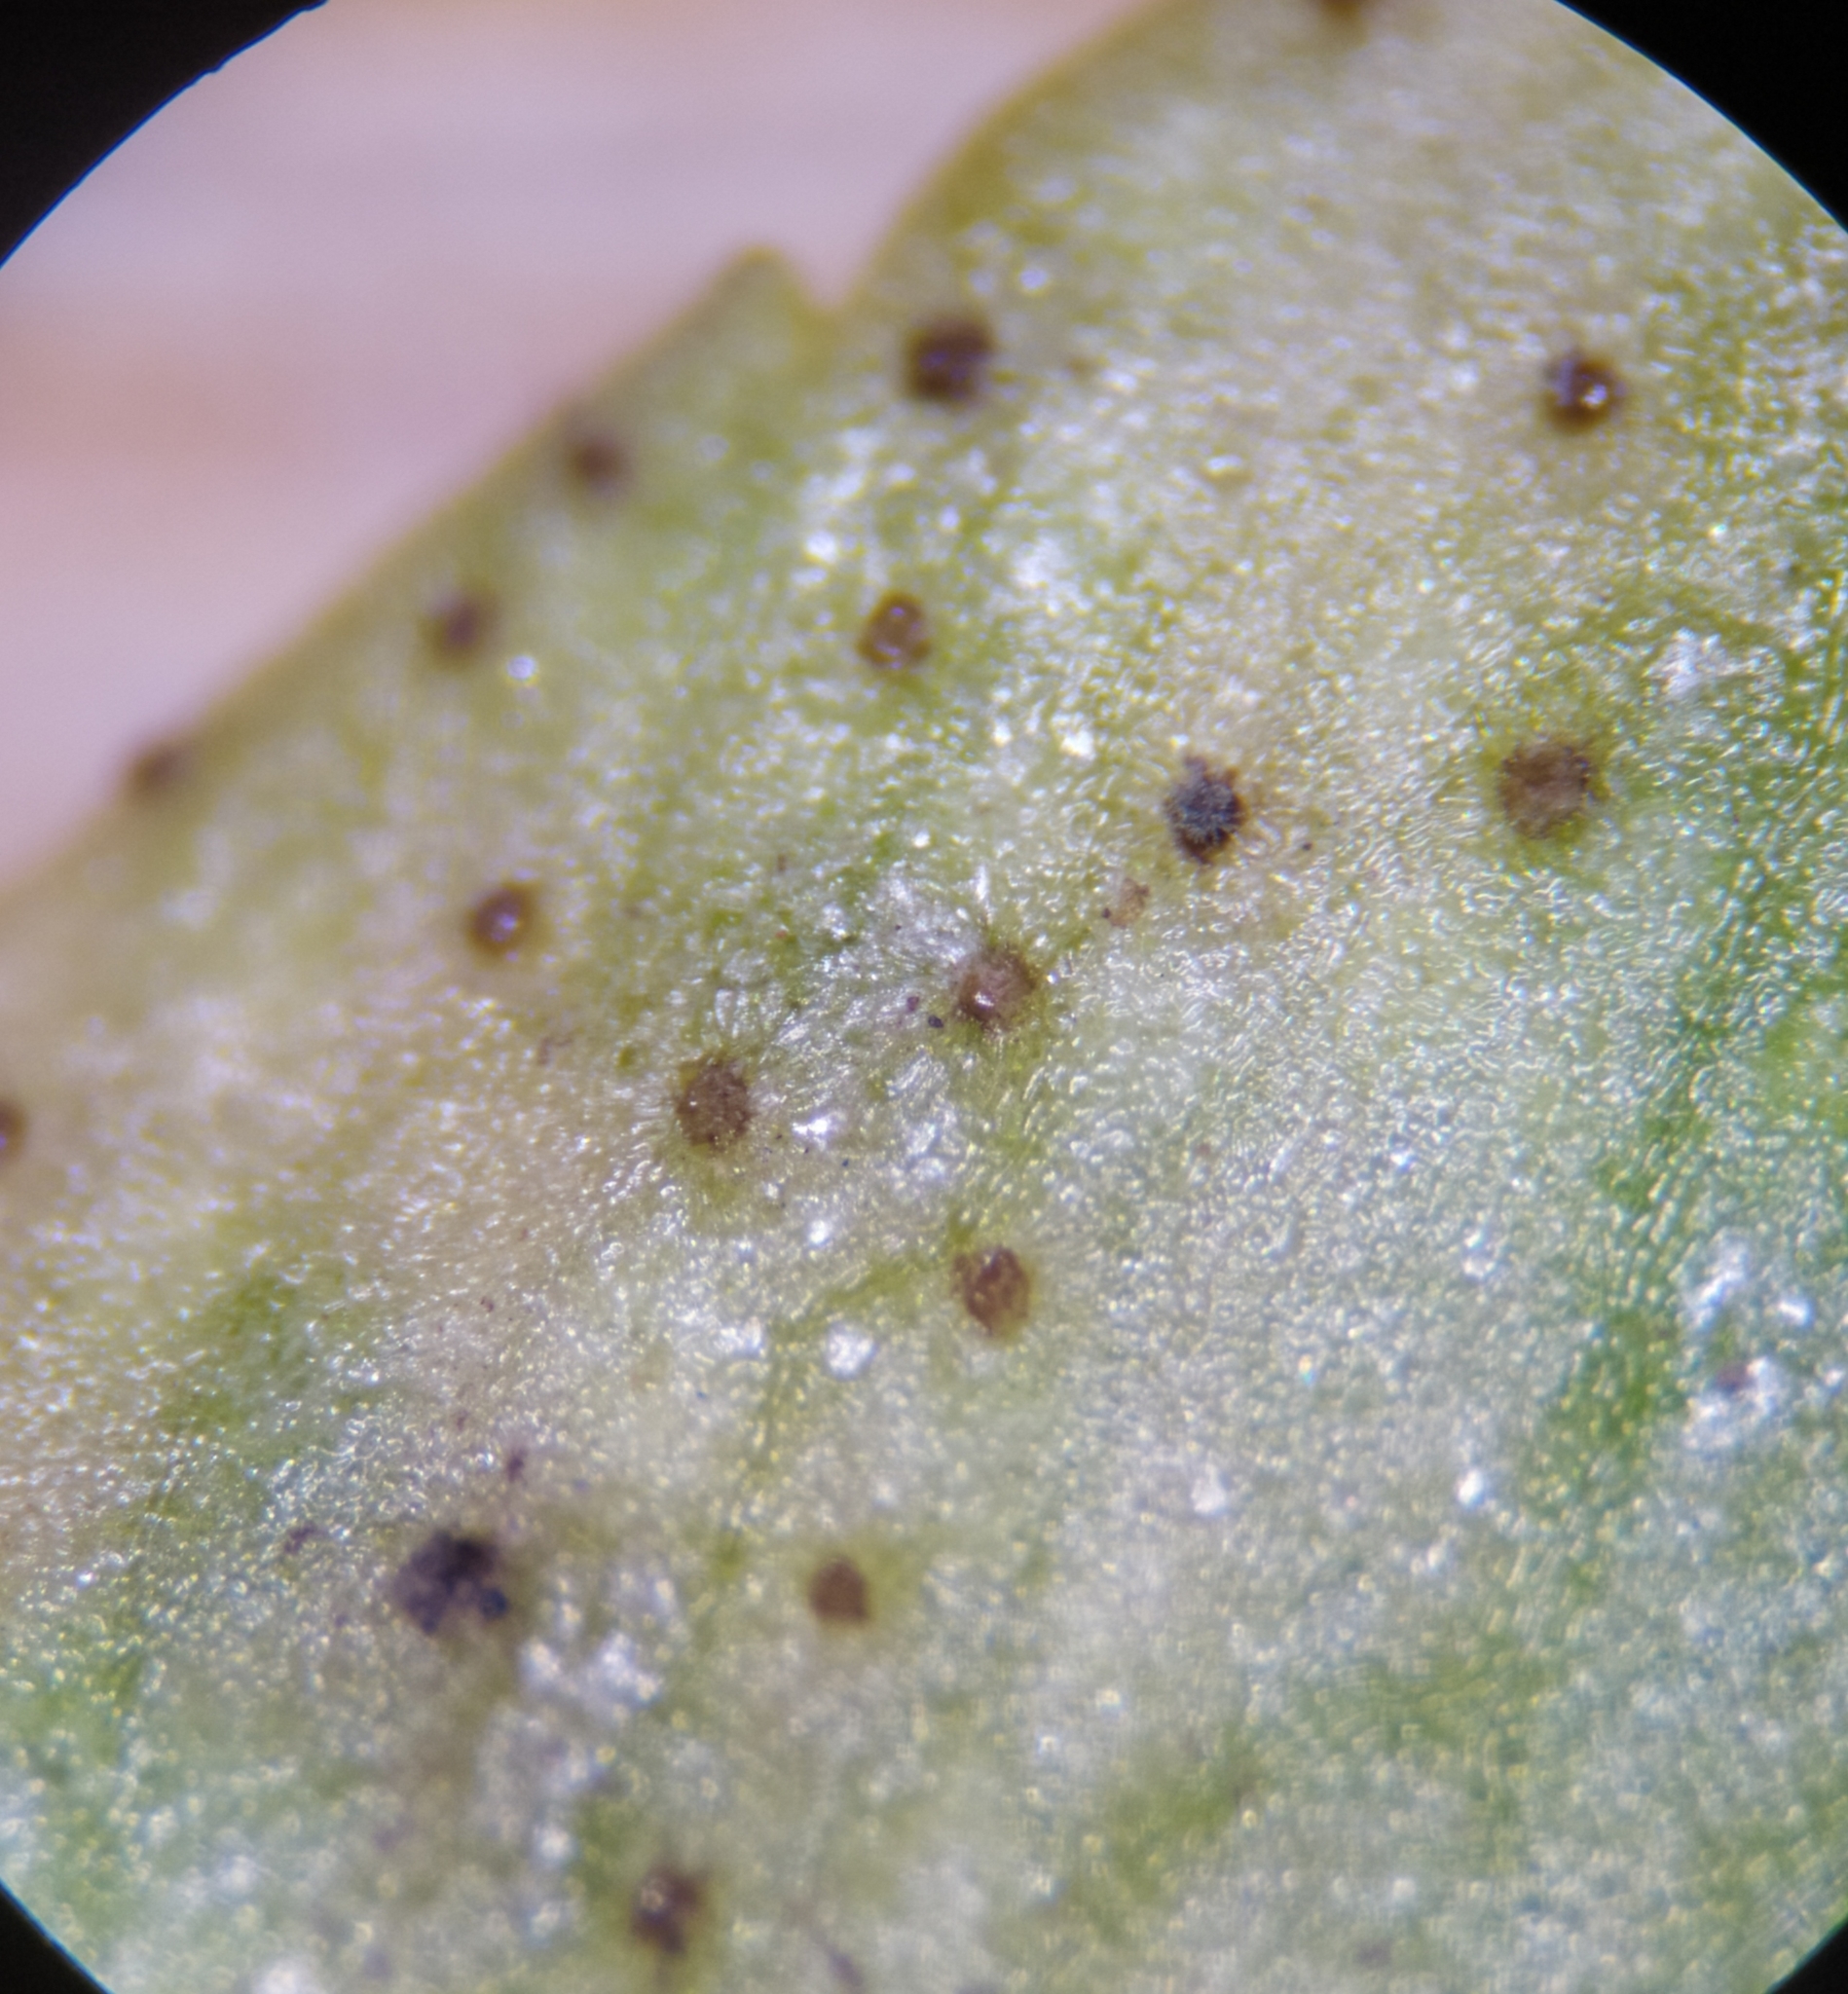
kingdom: Fungi
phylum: Basidiomycota
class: Pucciniomycetes
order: Pucciniales
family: Tranzscheliaceae
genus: Tranzschelia
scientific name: Tranzschelia pruni-spinosae
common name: Blackthorn rust
